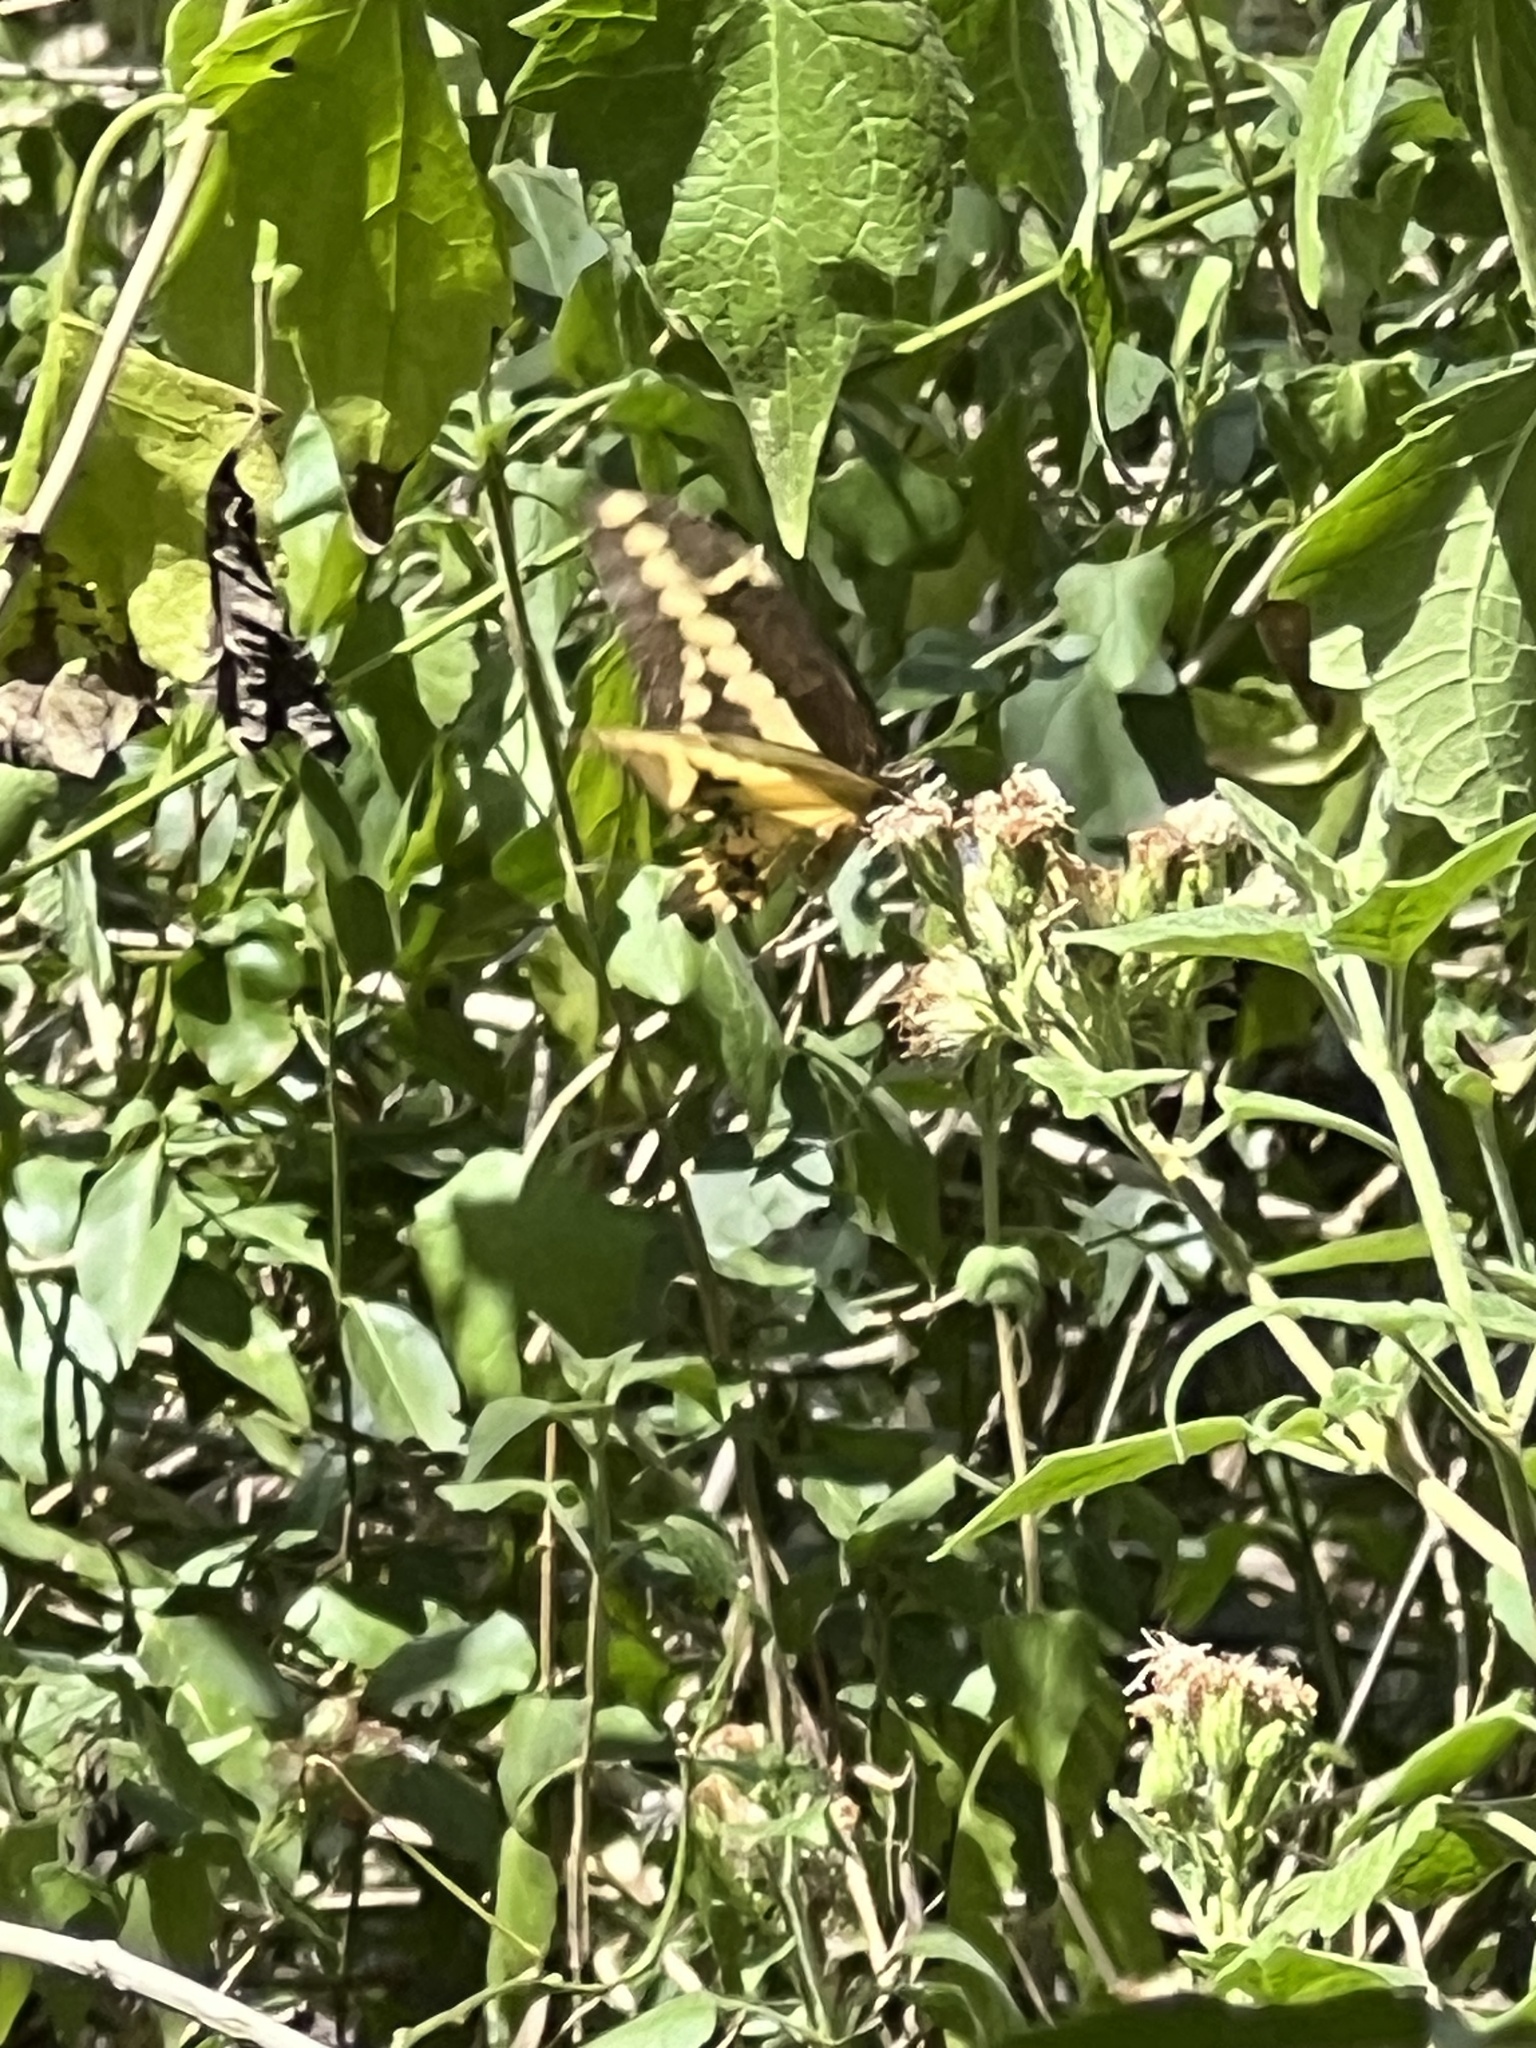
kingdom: Animalia
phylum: Arthropoda
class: Insecta
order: Lepidoptera
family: Papilionidae
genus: Papilio
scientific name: Papilio rumiko
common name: Western giant swallowtail
